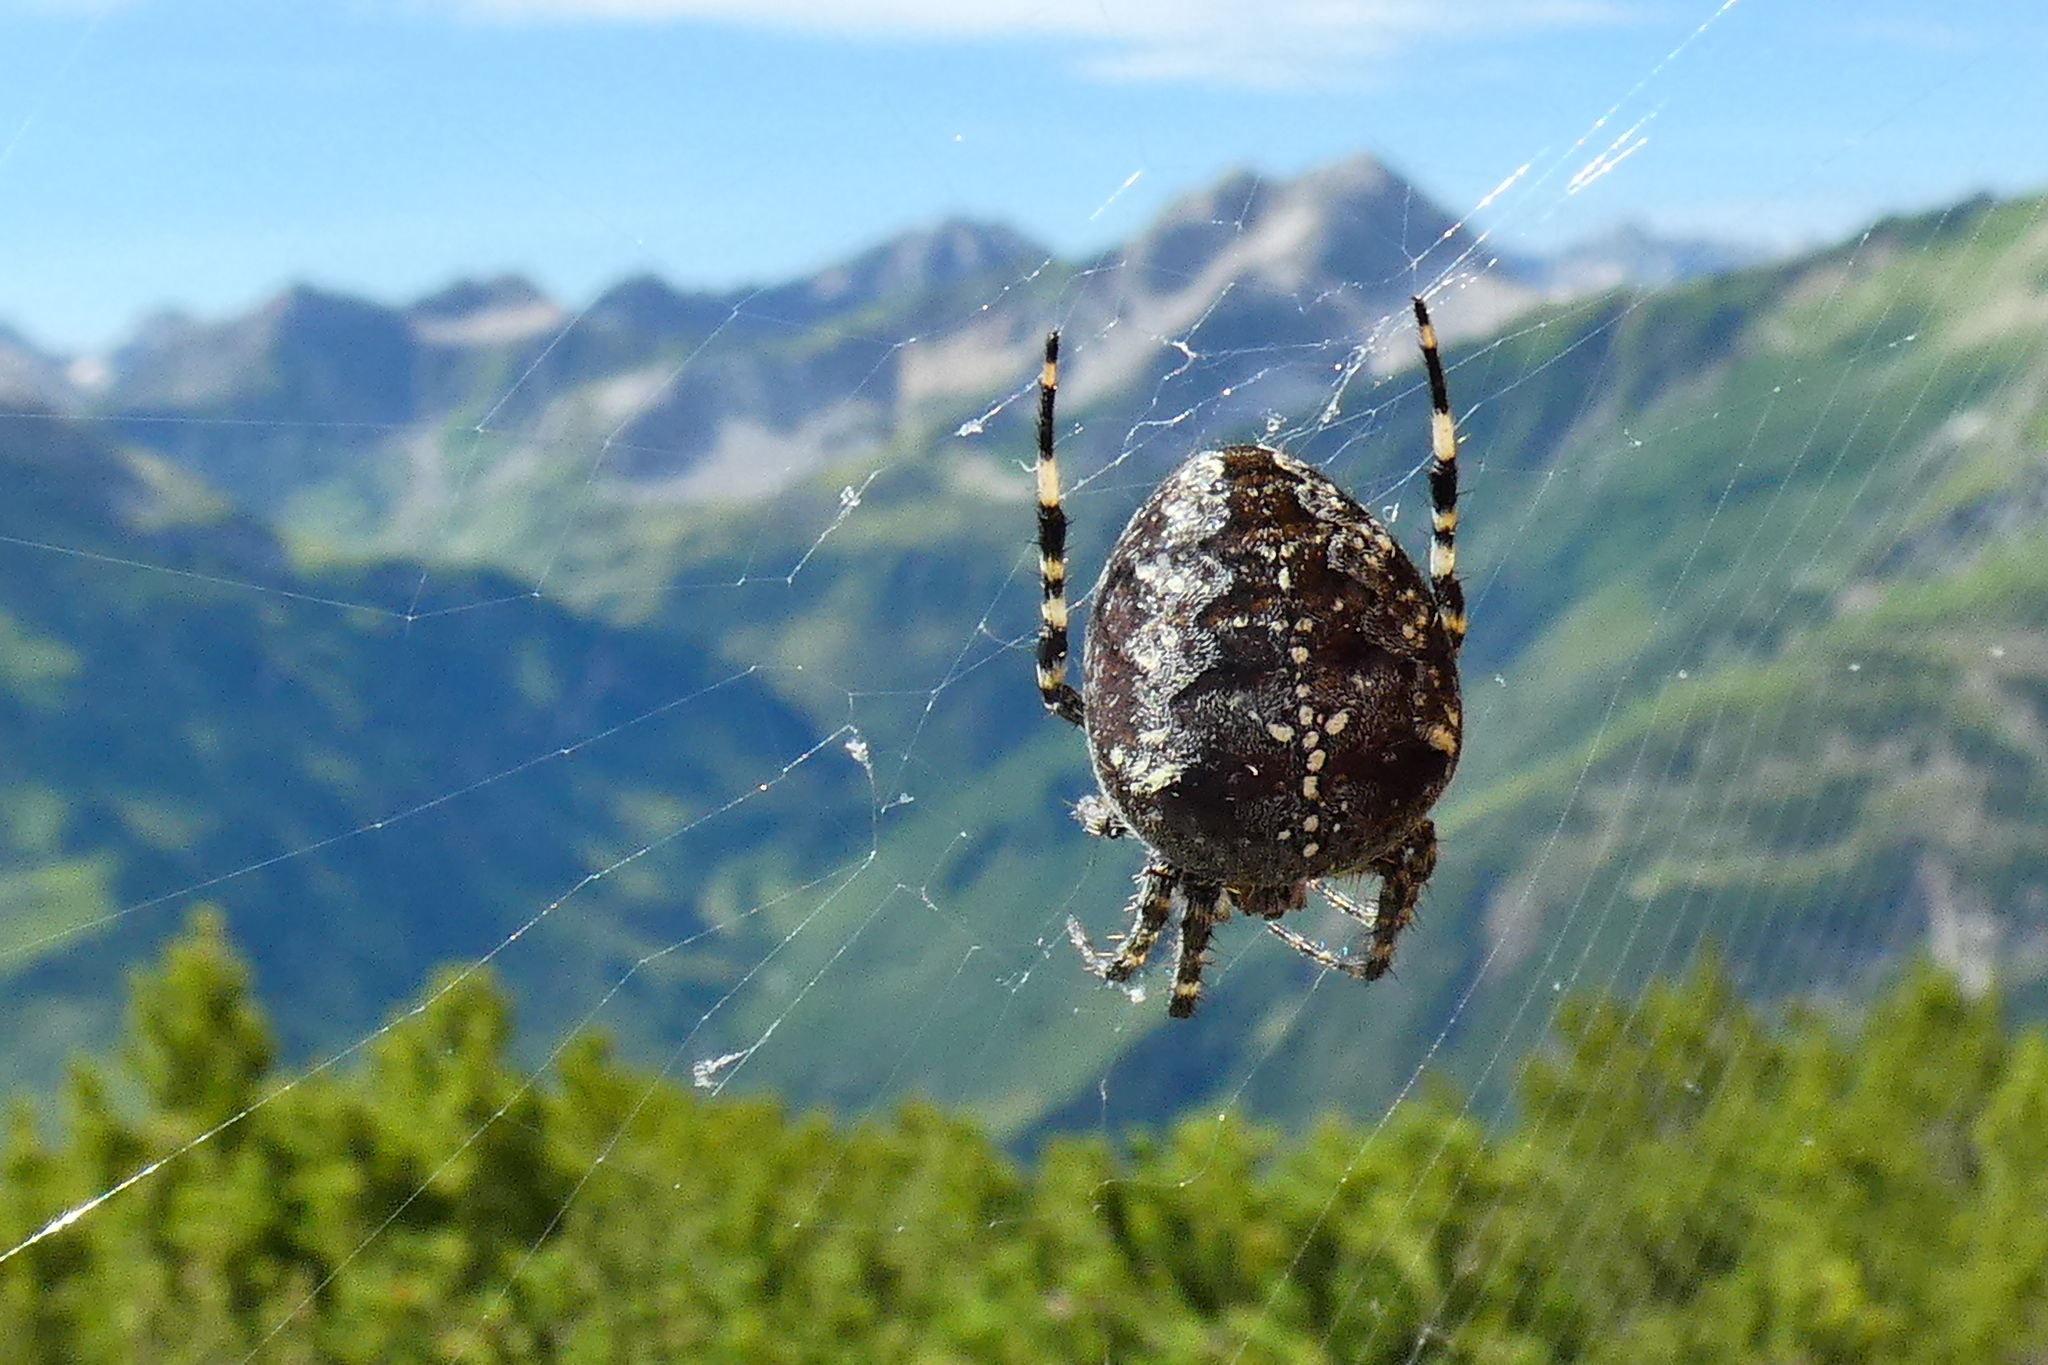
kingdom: Animalia
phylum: Arthropoda
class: Arachnida
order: Araneae
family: Araneidae
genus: Araneus
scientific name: Araneus diadematus
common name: Cross orbweaver
